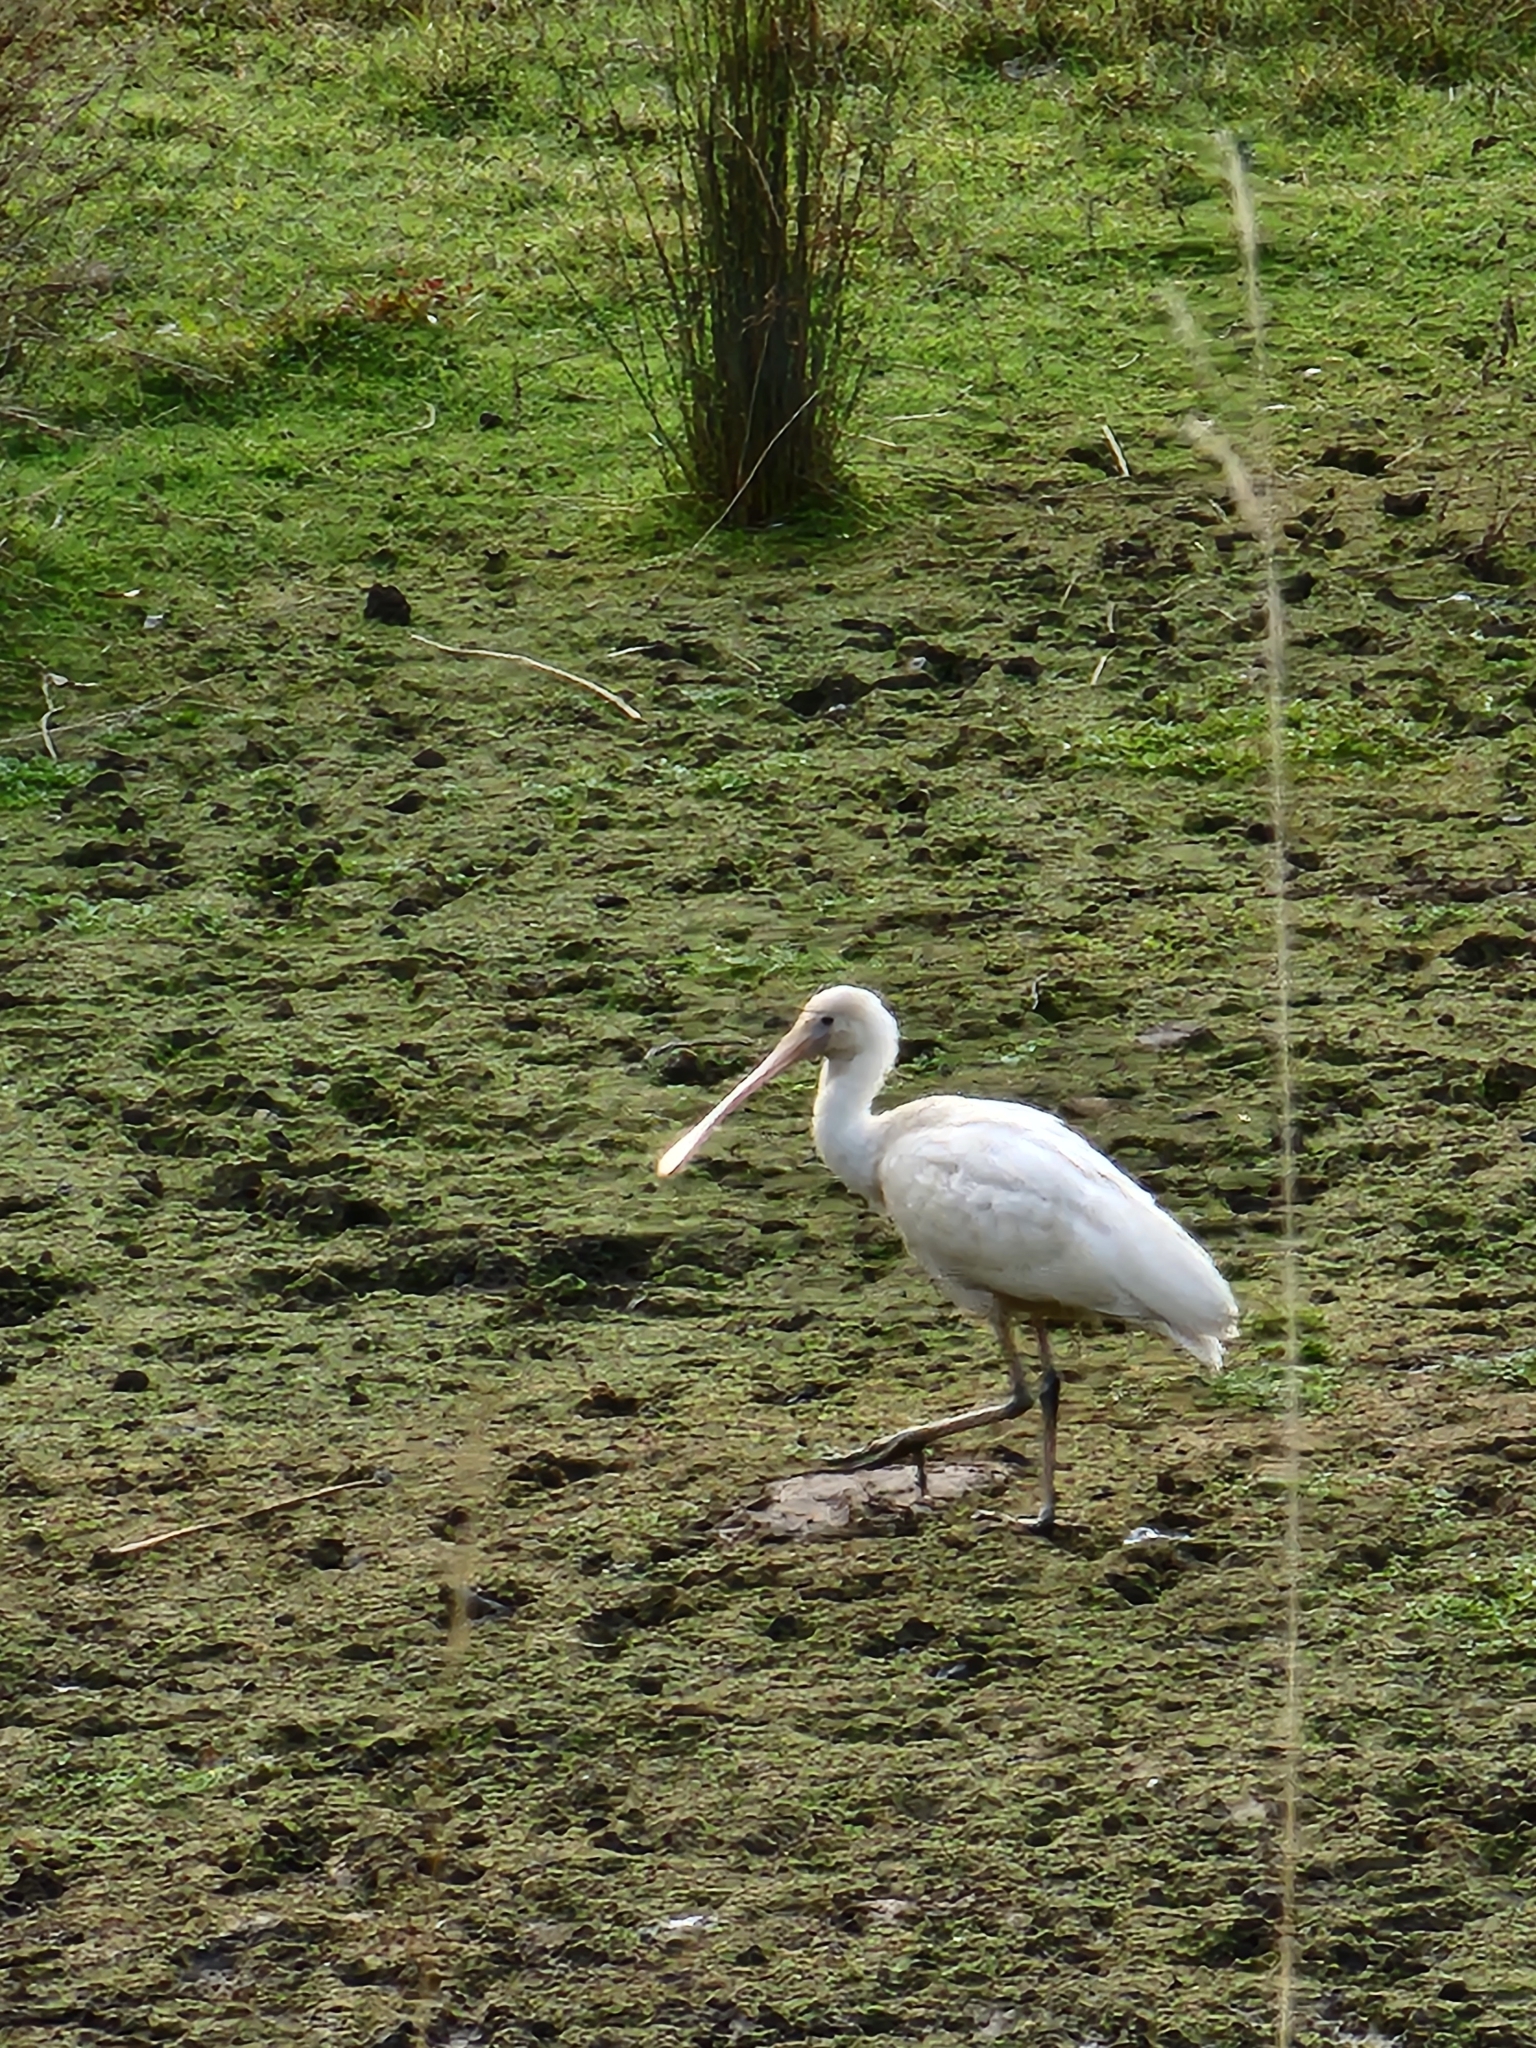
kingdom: Animalia
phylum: Chordata
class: Aves
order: Pelecaniformes
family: Threskiornithidae
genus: Platalea
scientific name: Platalea flavipes
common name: Yellow-billed spoonbill
